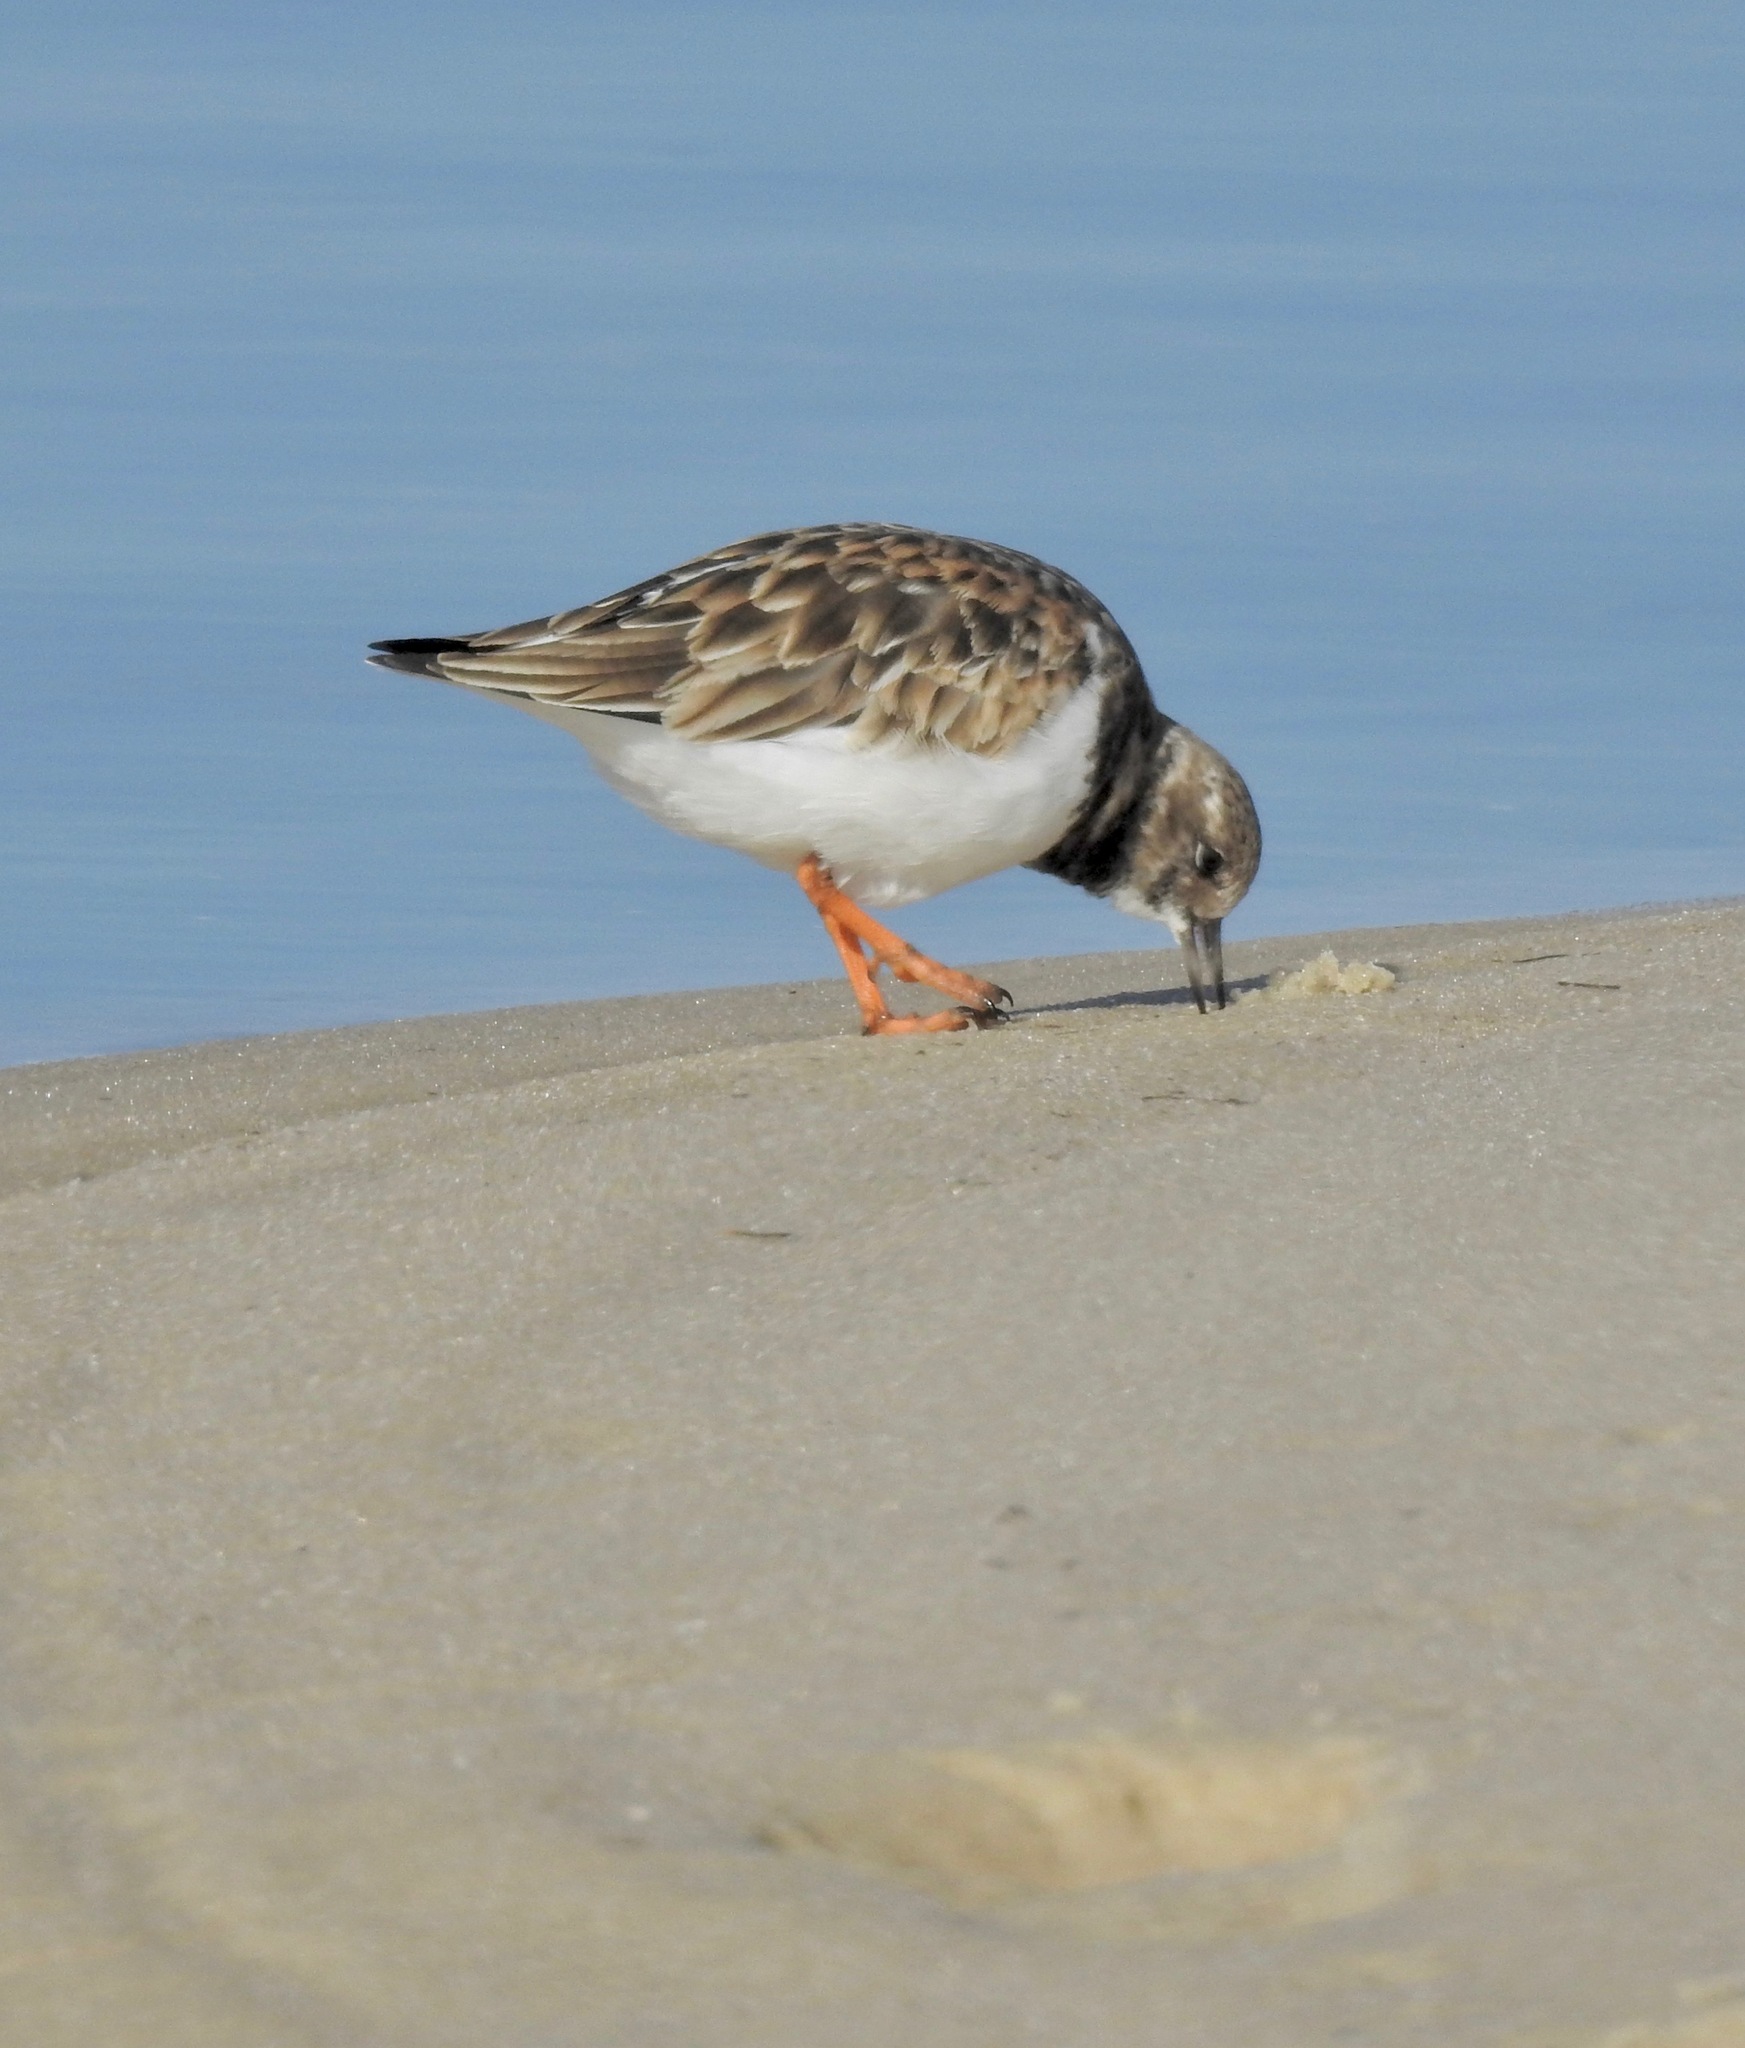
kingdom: Animalia
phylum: Chordata
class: Aves
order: Charadriiformes
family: Scolopacidae
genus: Arenaria
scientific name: Arenaria interpres
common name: Ruddy turnstone
